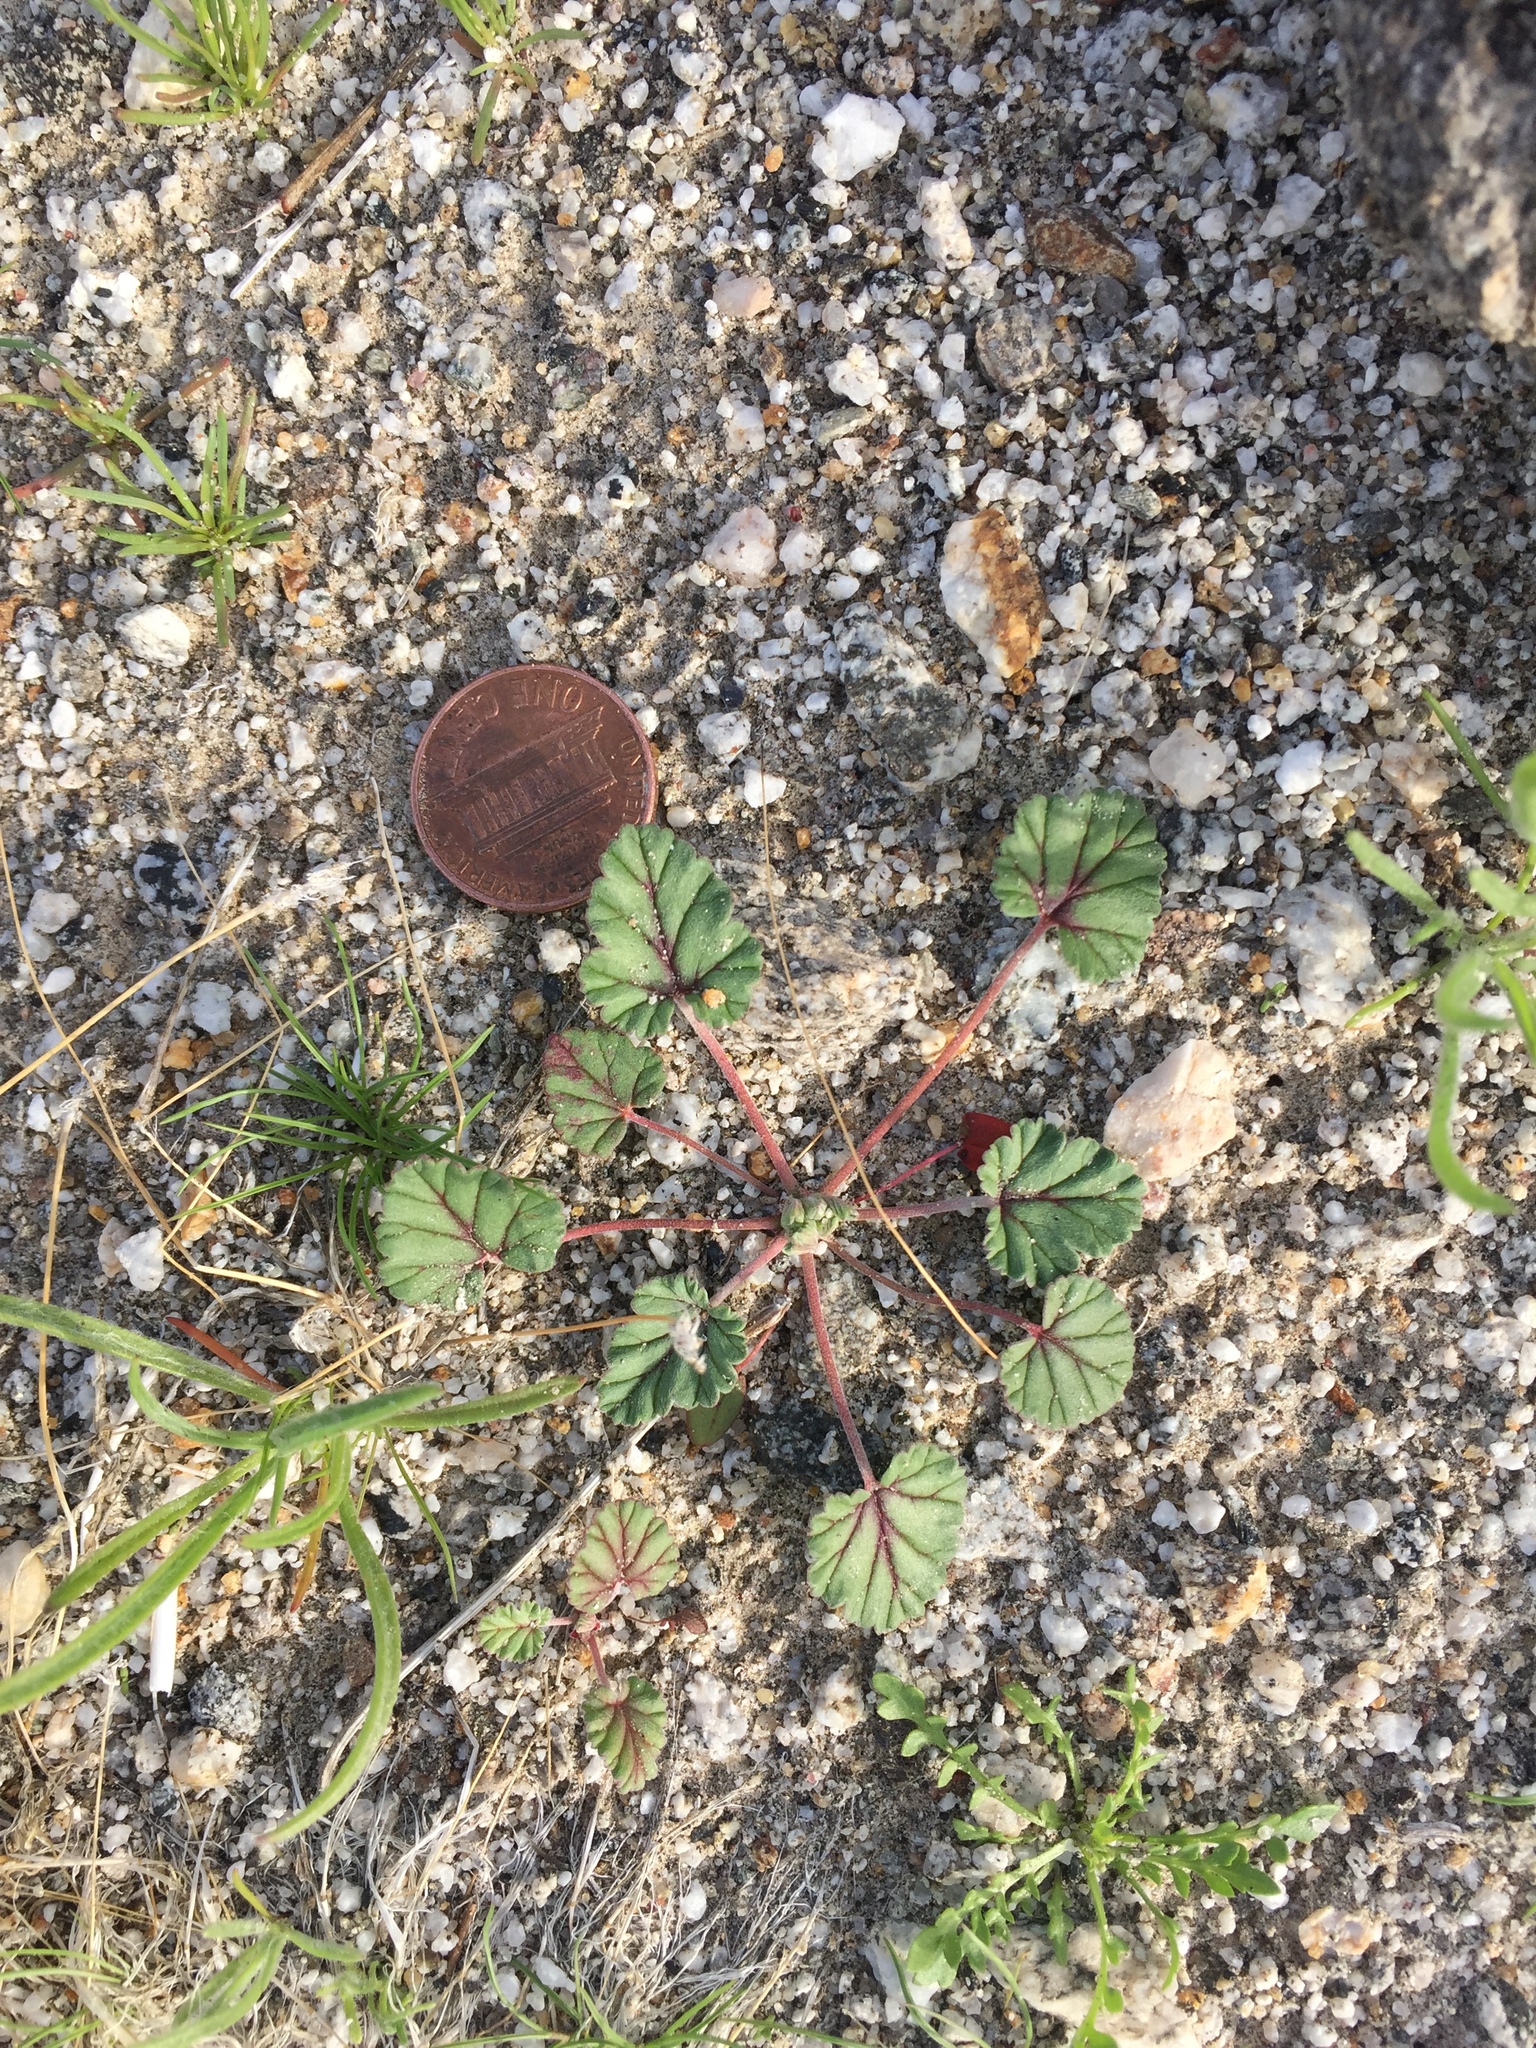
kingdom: Plantae
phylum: Tracheophyta
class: Magnoliopsida
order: Geraniales
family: Geraniaceae
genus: Erodium
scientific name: Erodium texanum
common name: Texas stork's-bill
